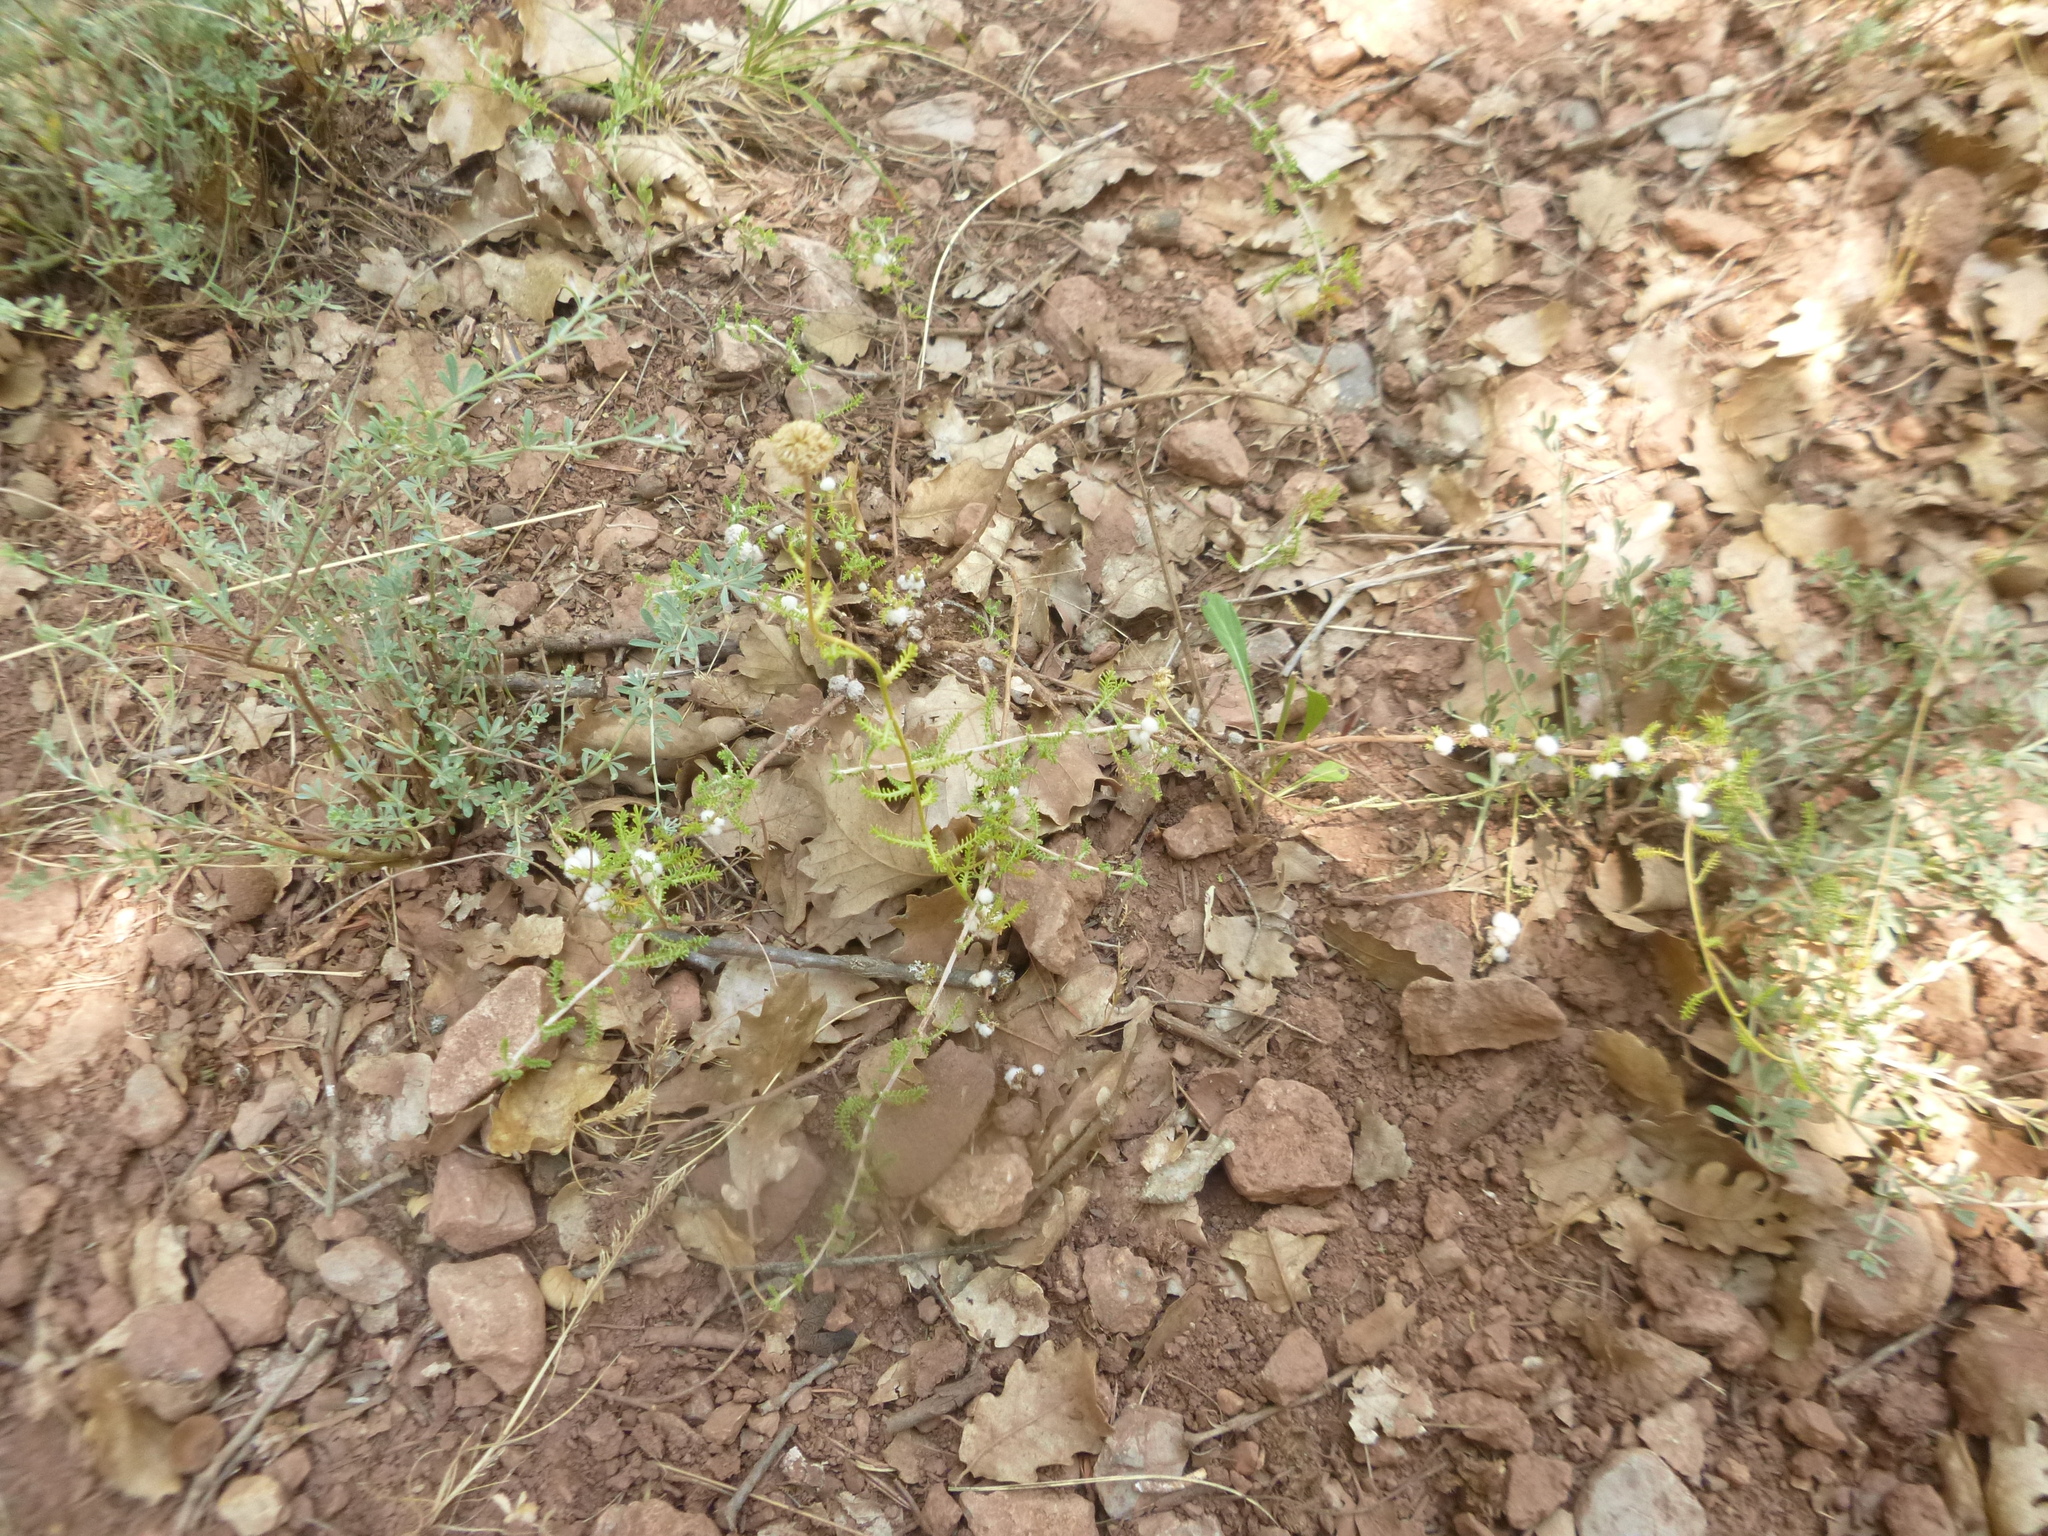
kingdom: Animalia
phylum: Arthropoda
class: Insecta
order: Diptera
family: Cecidomyiidae
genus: Rhopalomyia
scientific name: Rhopalomyia santolinae
